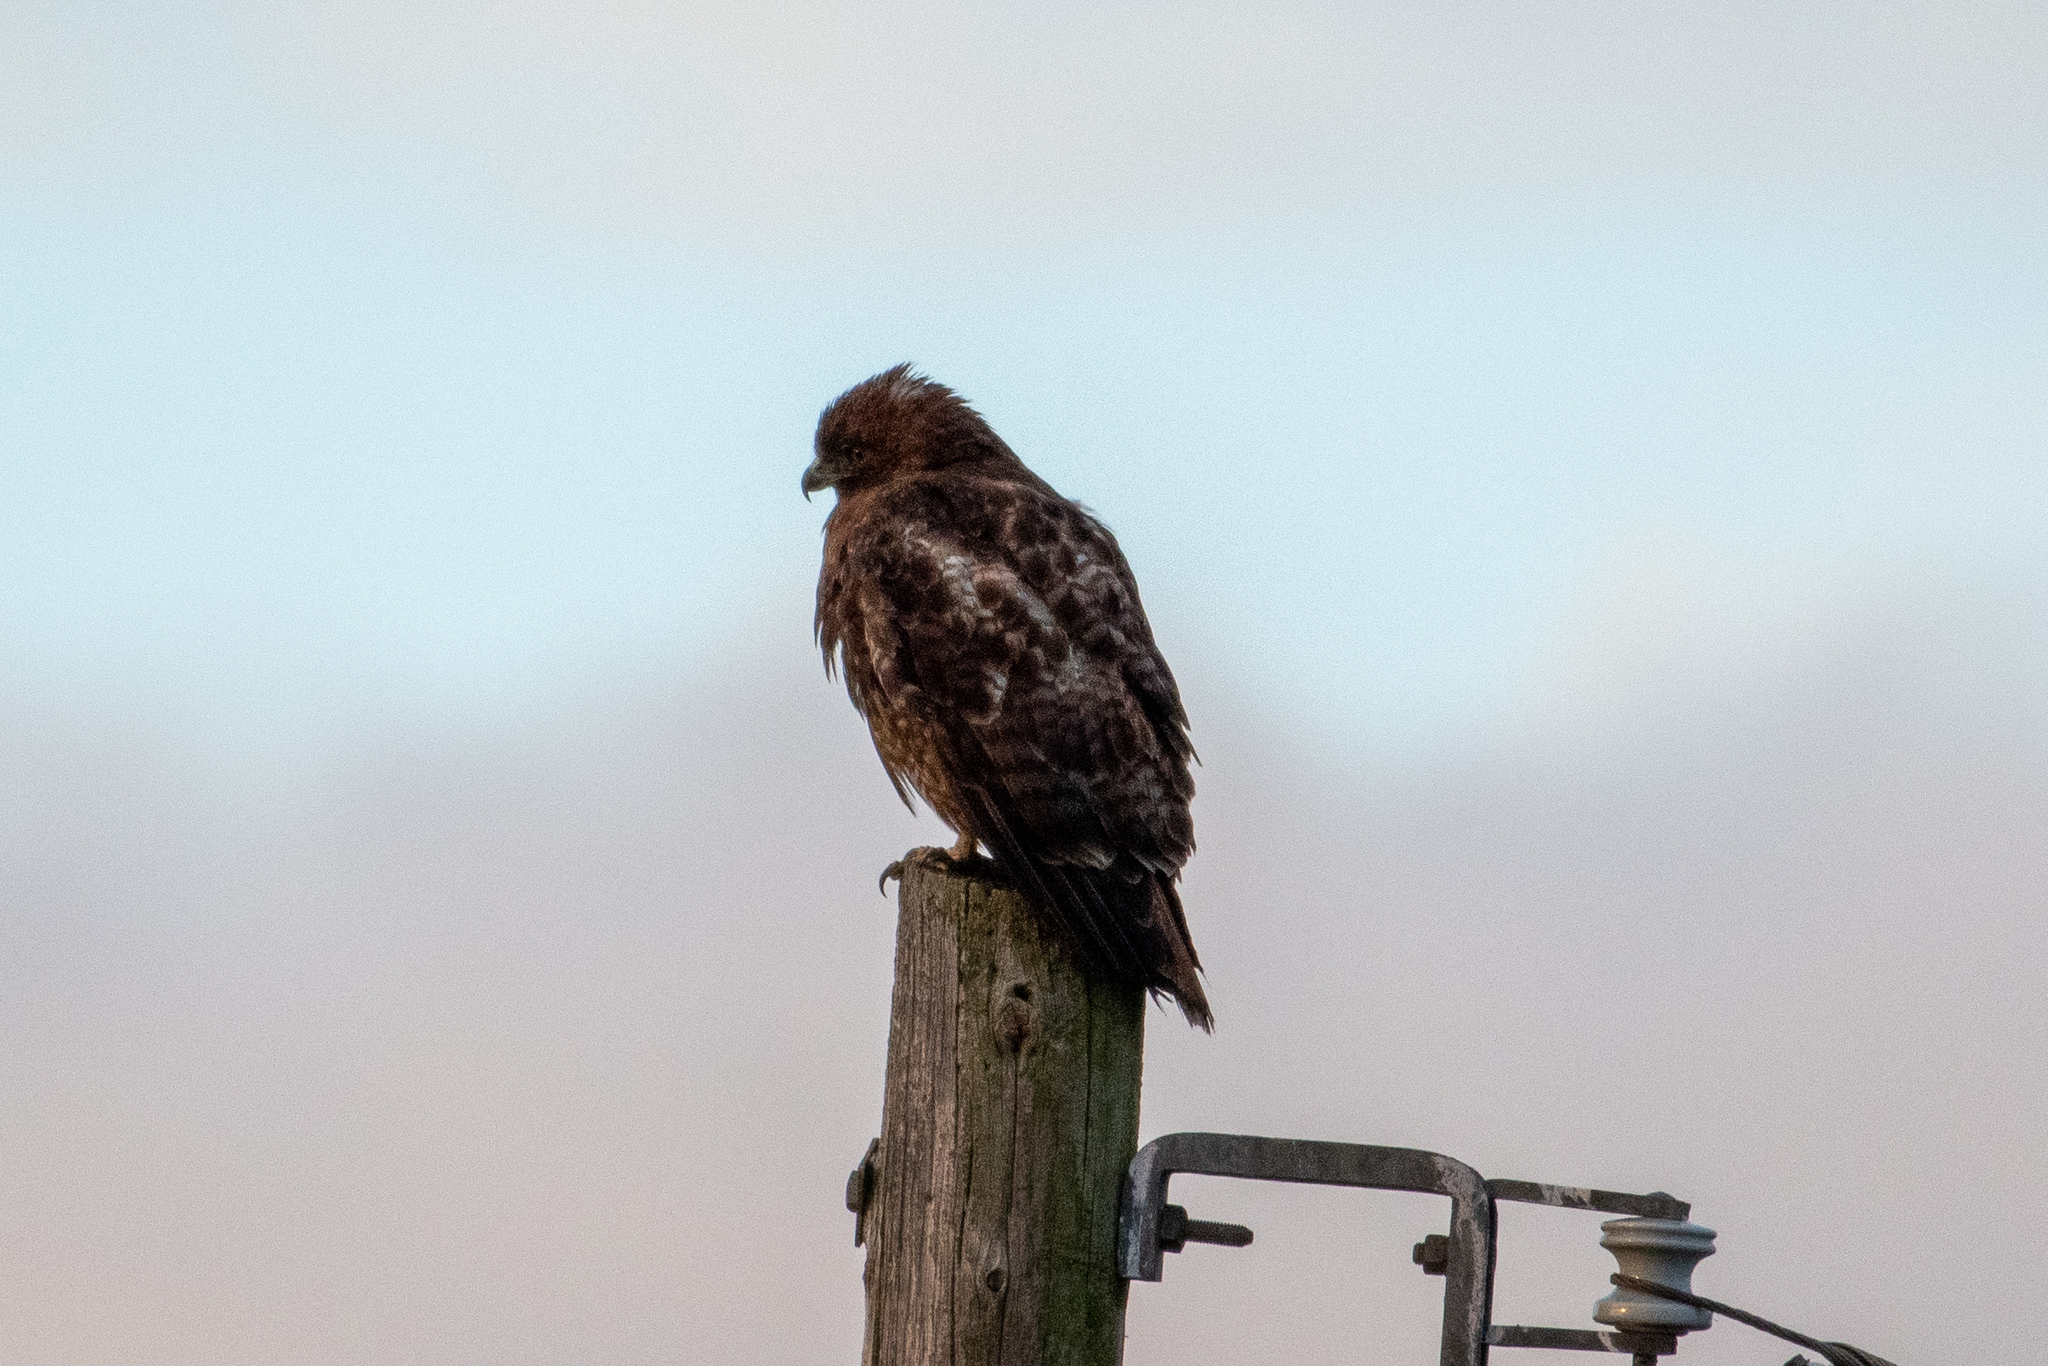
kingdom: Animalia
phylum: Chordata
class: Aves
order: Accipitriformes
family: Accipitridae
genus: Buteo
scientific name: Buteo jamaicensis
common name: Red-tailed hawk
